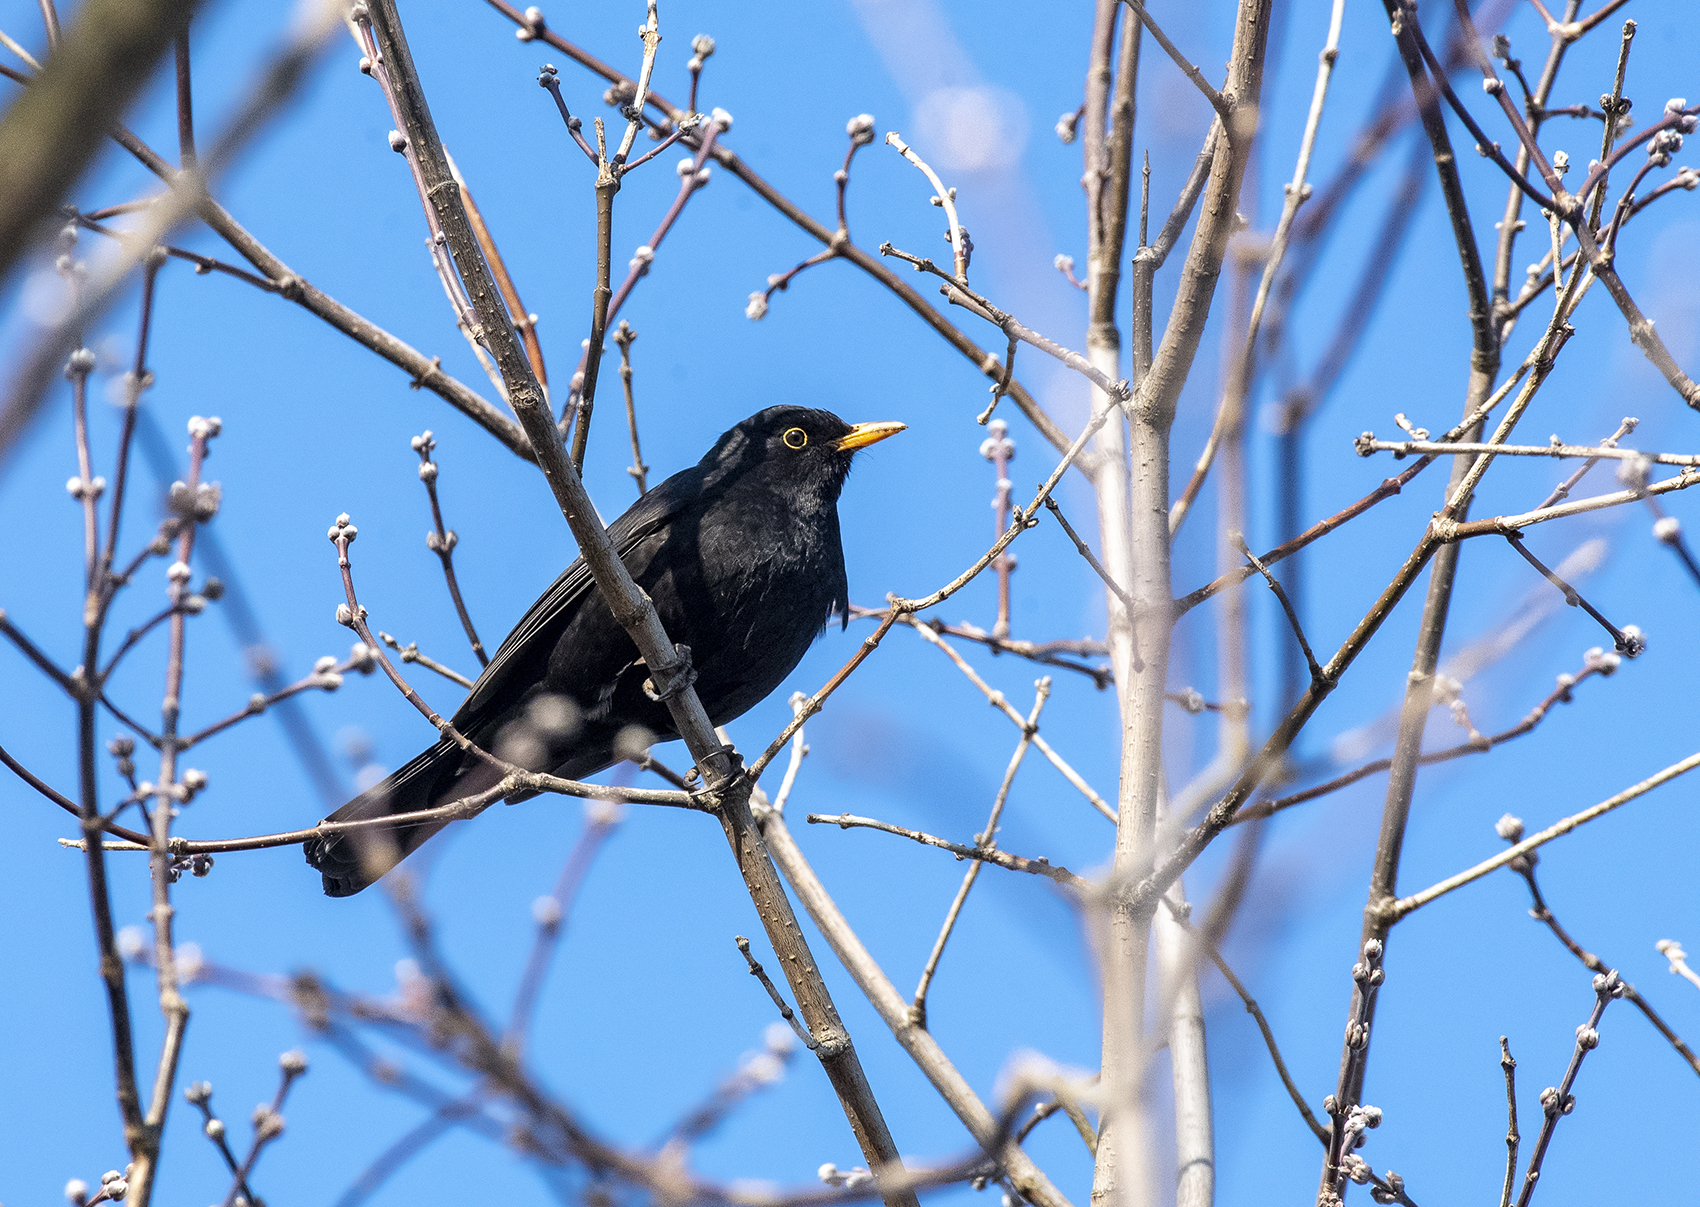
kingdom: Animalia
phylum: Chordata
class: Aves
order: Passeriformes
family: Turdidae
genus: Turdus
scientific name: Turdus merula
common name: Common blackbird
